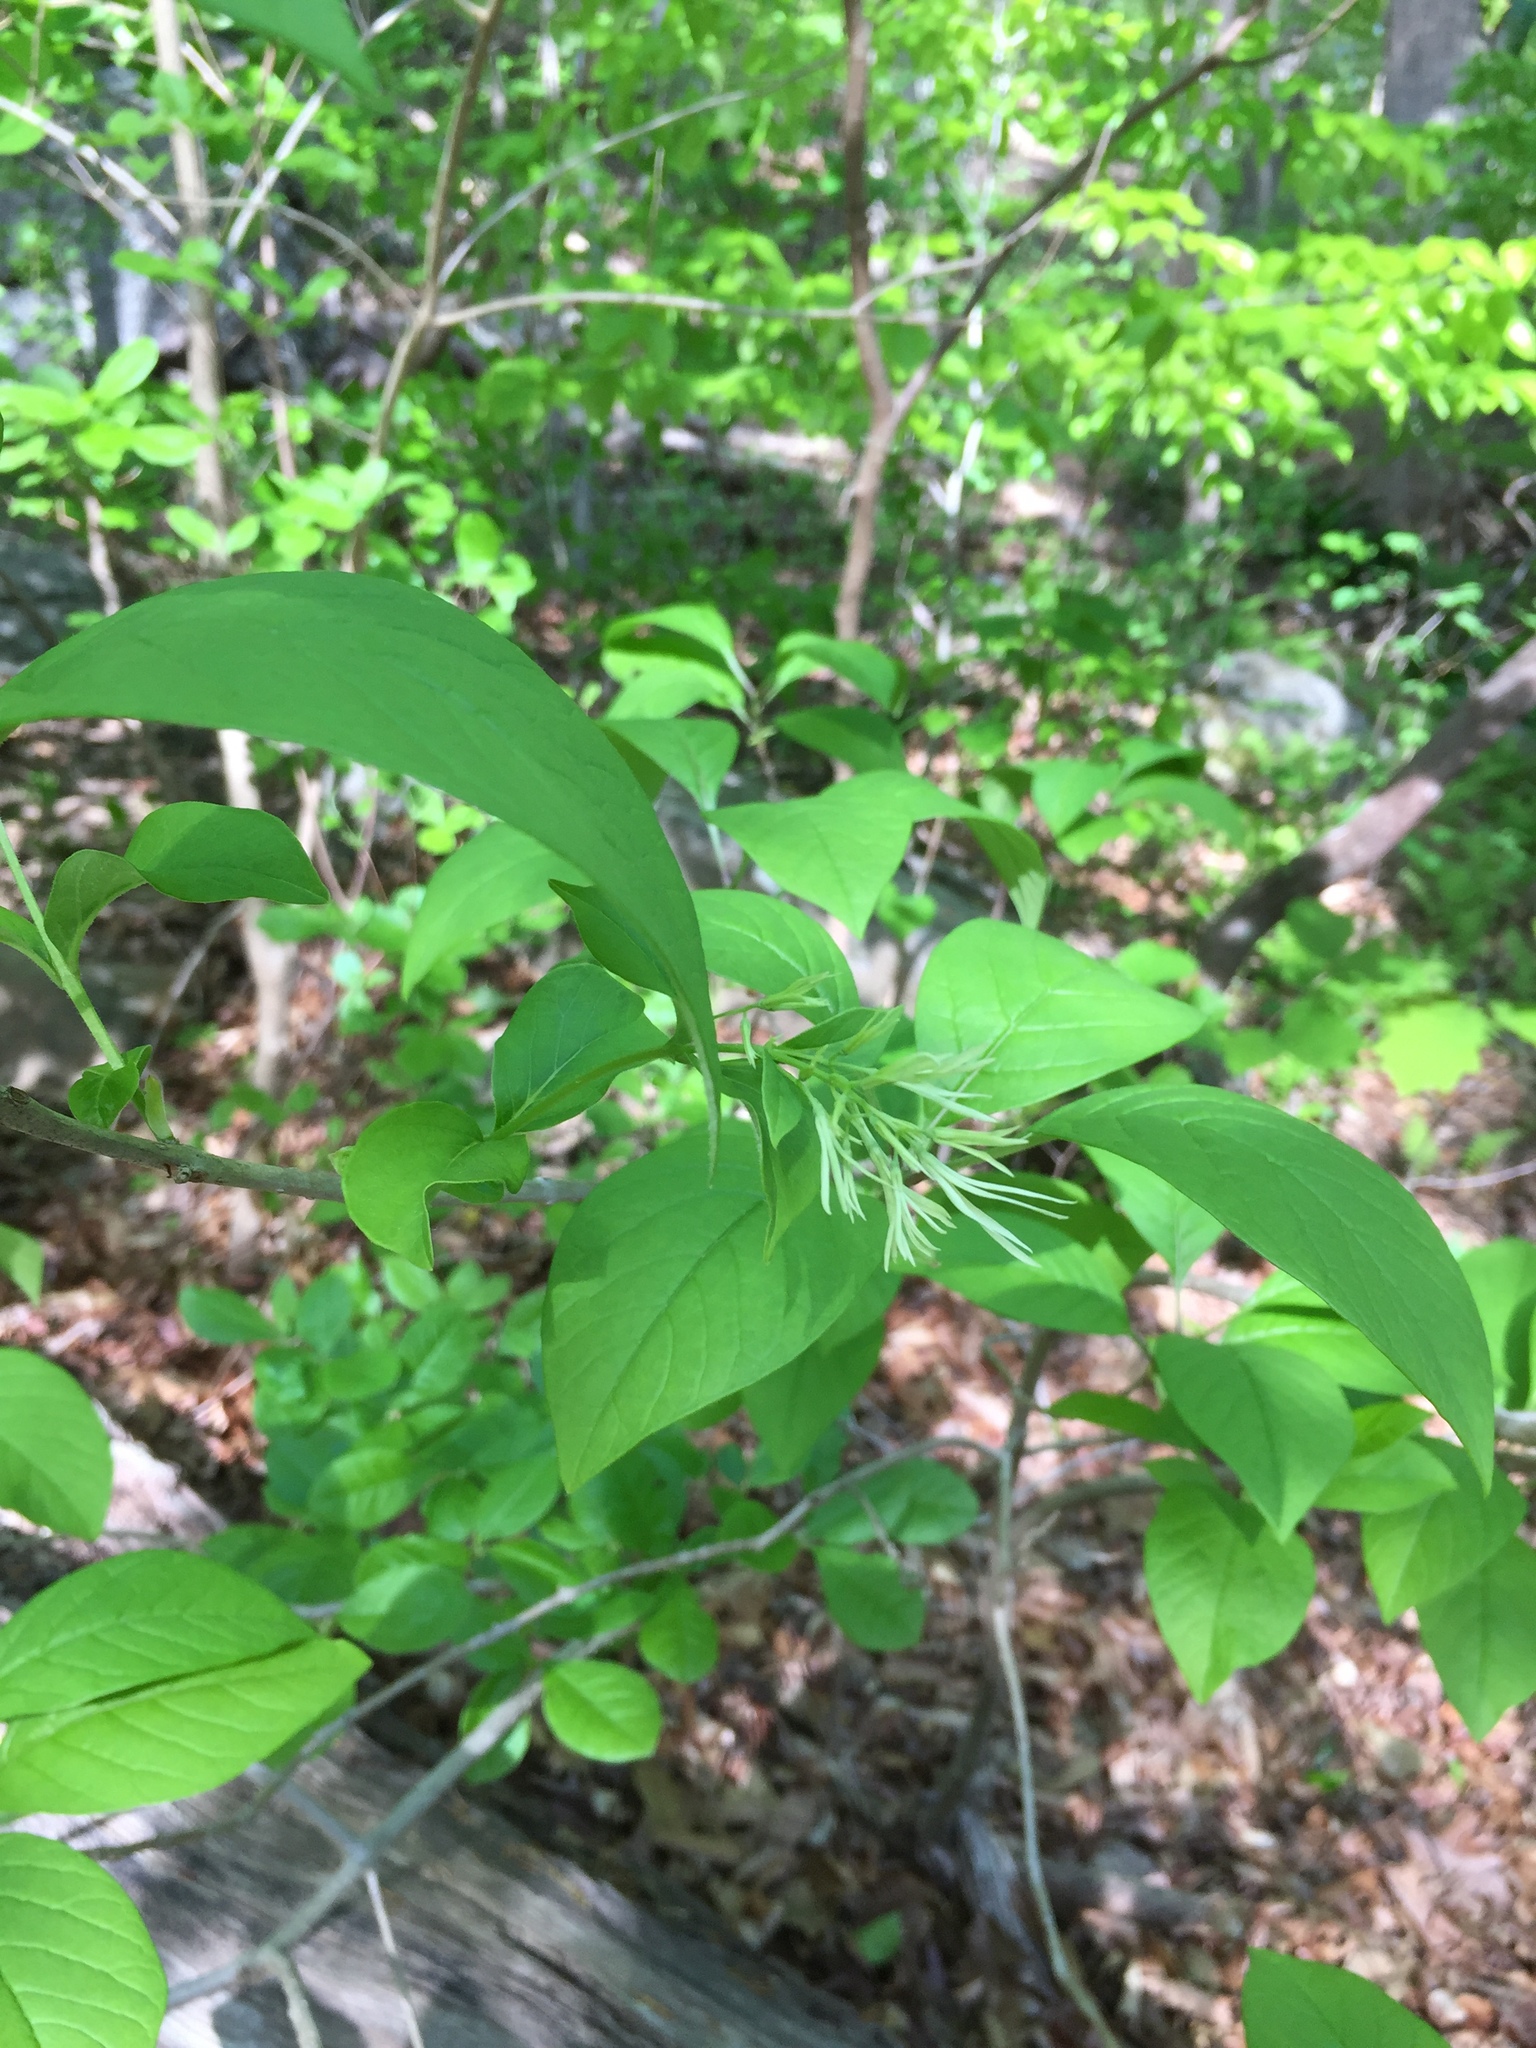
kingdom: Plantae
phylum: Tracheophyta
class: Magnoliopsida
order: Lamiales
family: Oleaceae
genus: Chionanthus
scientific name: Chionanthus virginicus
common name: American fringetree
